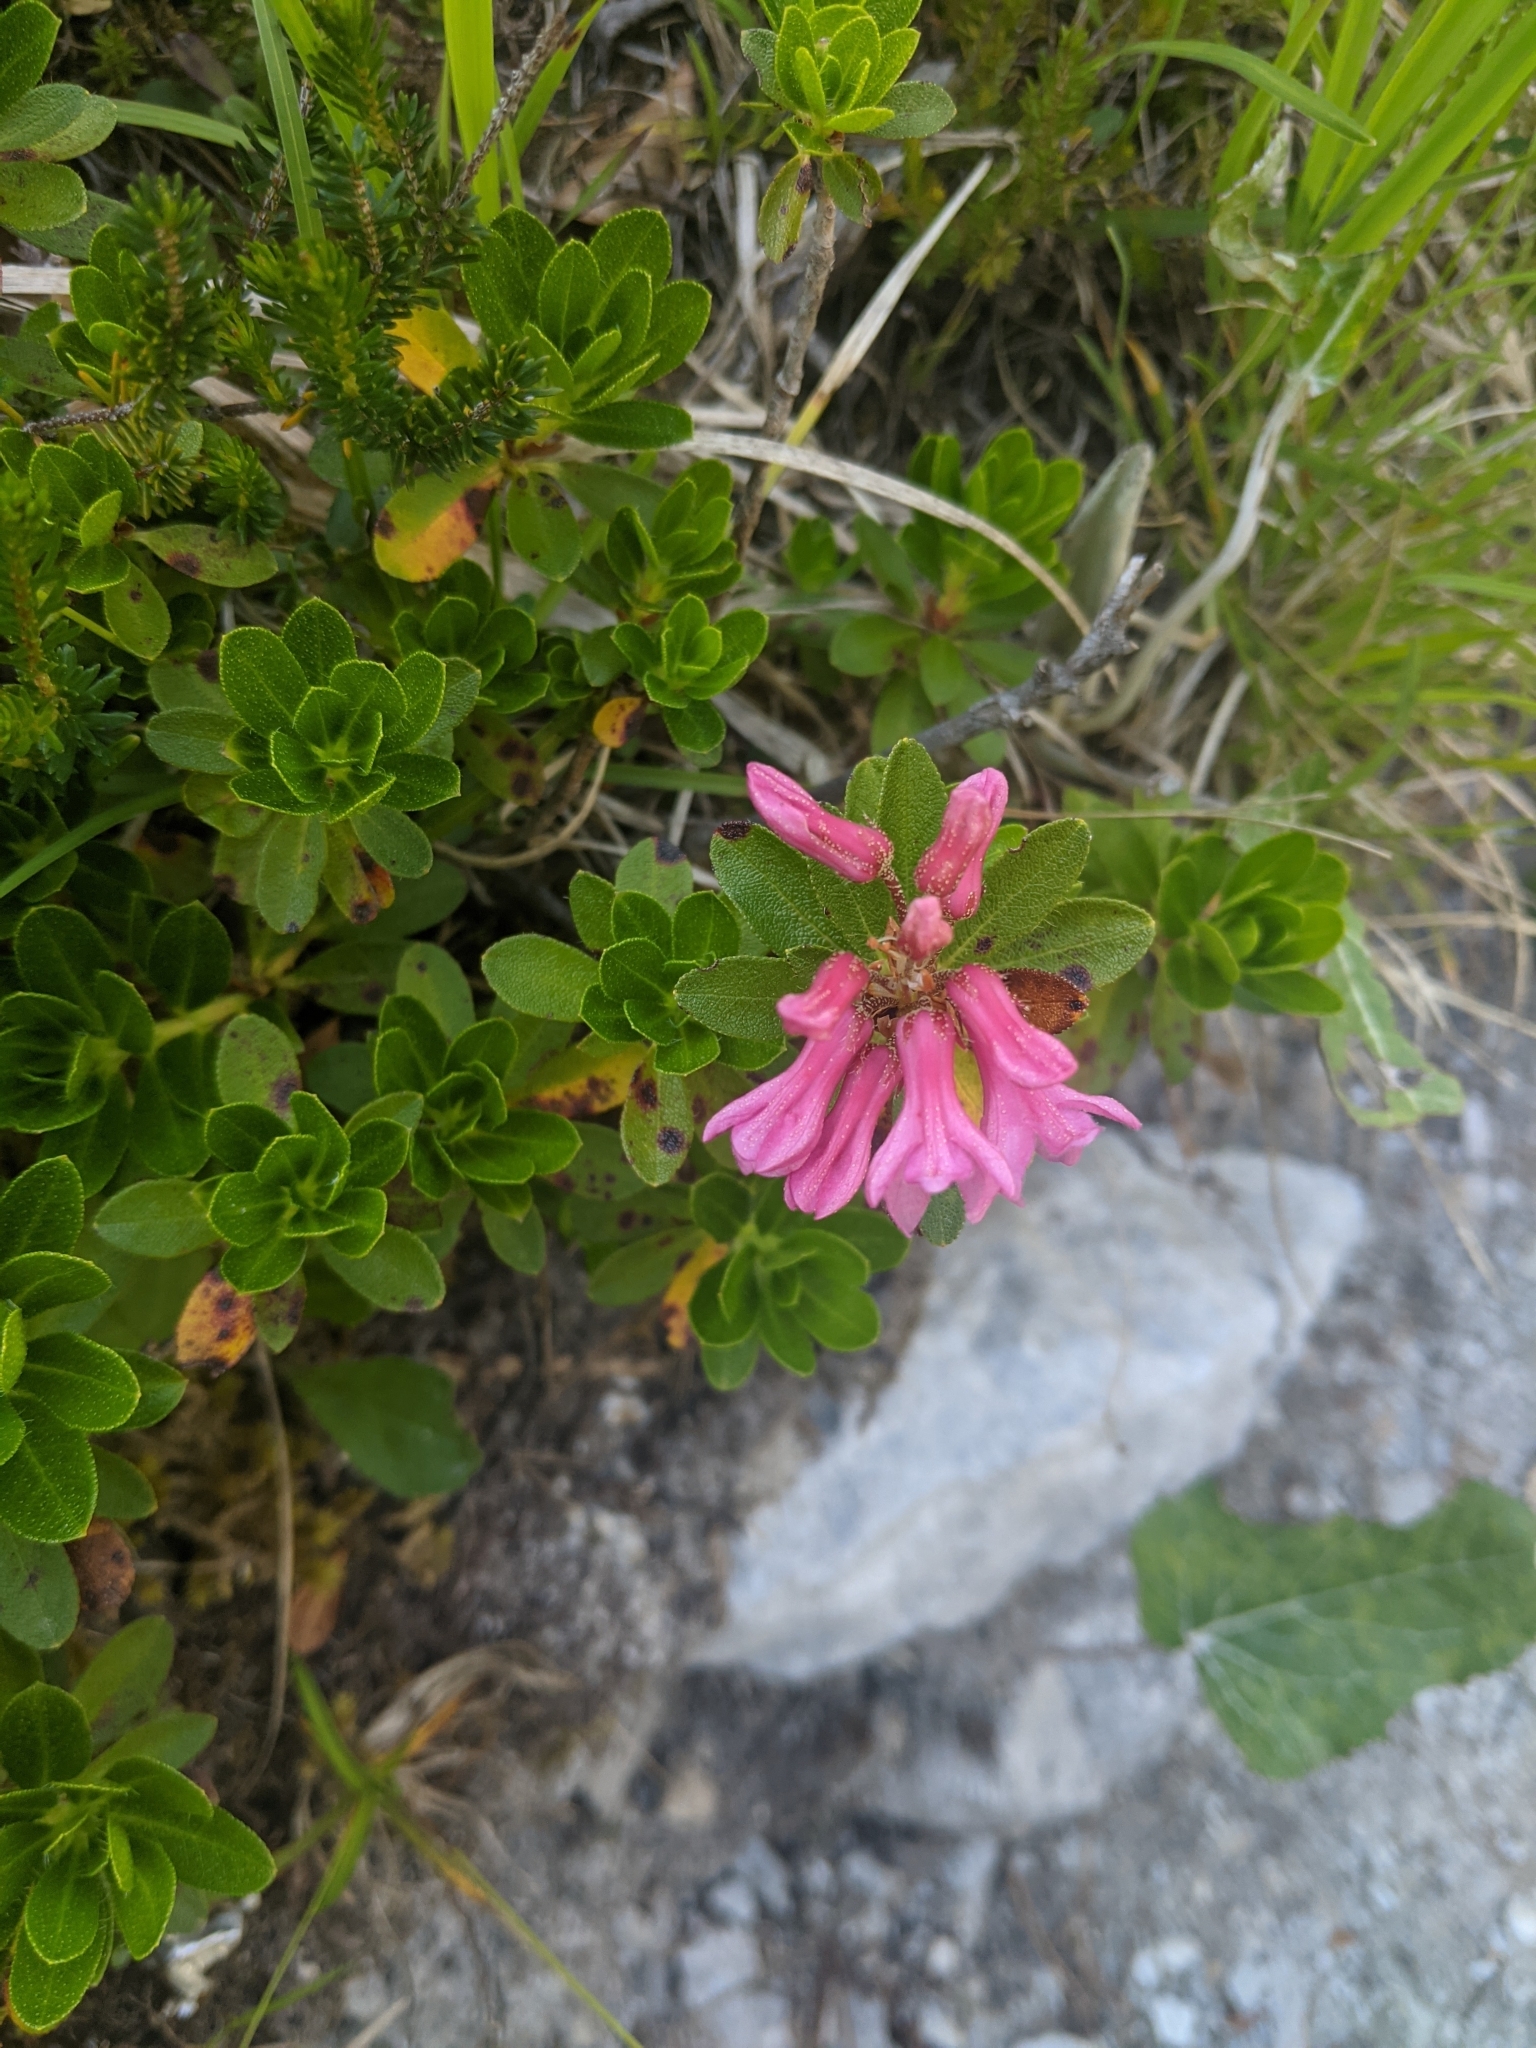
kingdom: Plantae
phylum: Tracheophyta
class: Magnoliopsida
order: Ericales
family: Ericaceae
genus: Rhododendron
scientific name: Rhododendron hirsutum
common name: Hairy alpenrose
